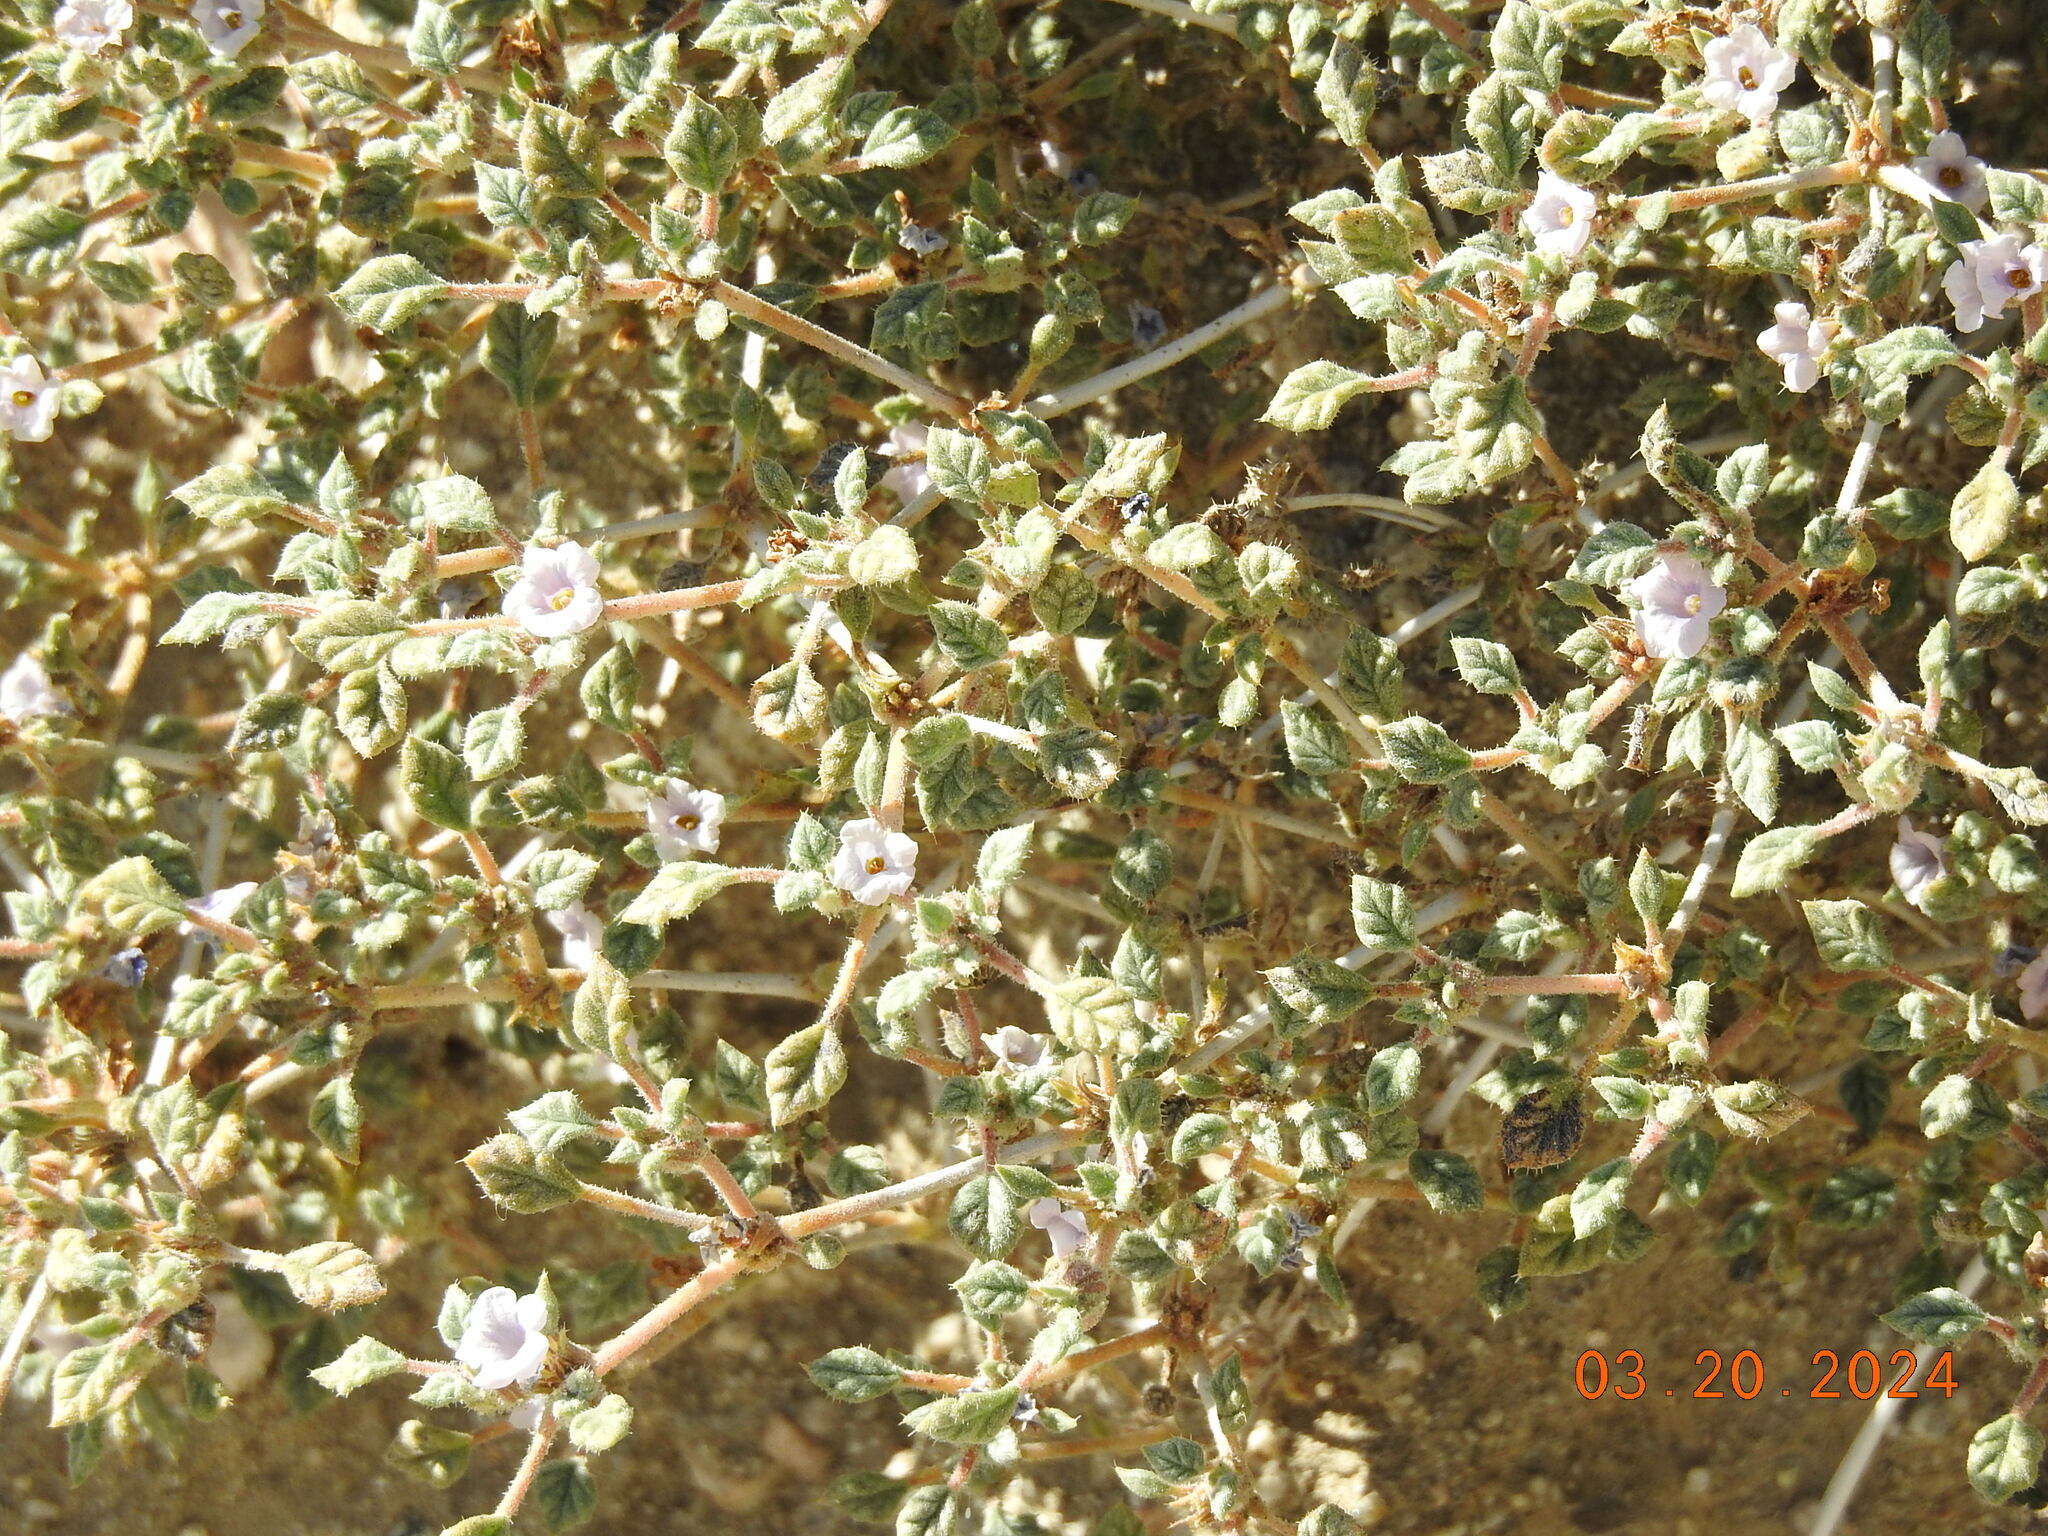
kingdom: Plantae
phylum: Tracheophyta
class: Magnoliopsida
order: Boraginales
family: Ehretiaceae
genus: Tiquilia
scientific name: Tiquilia palmeri
